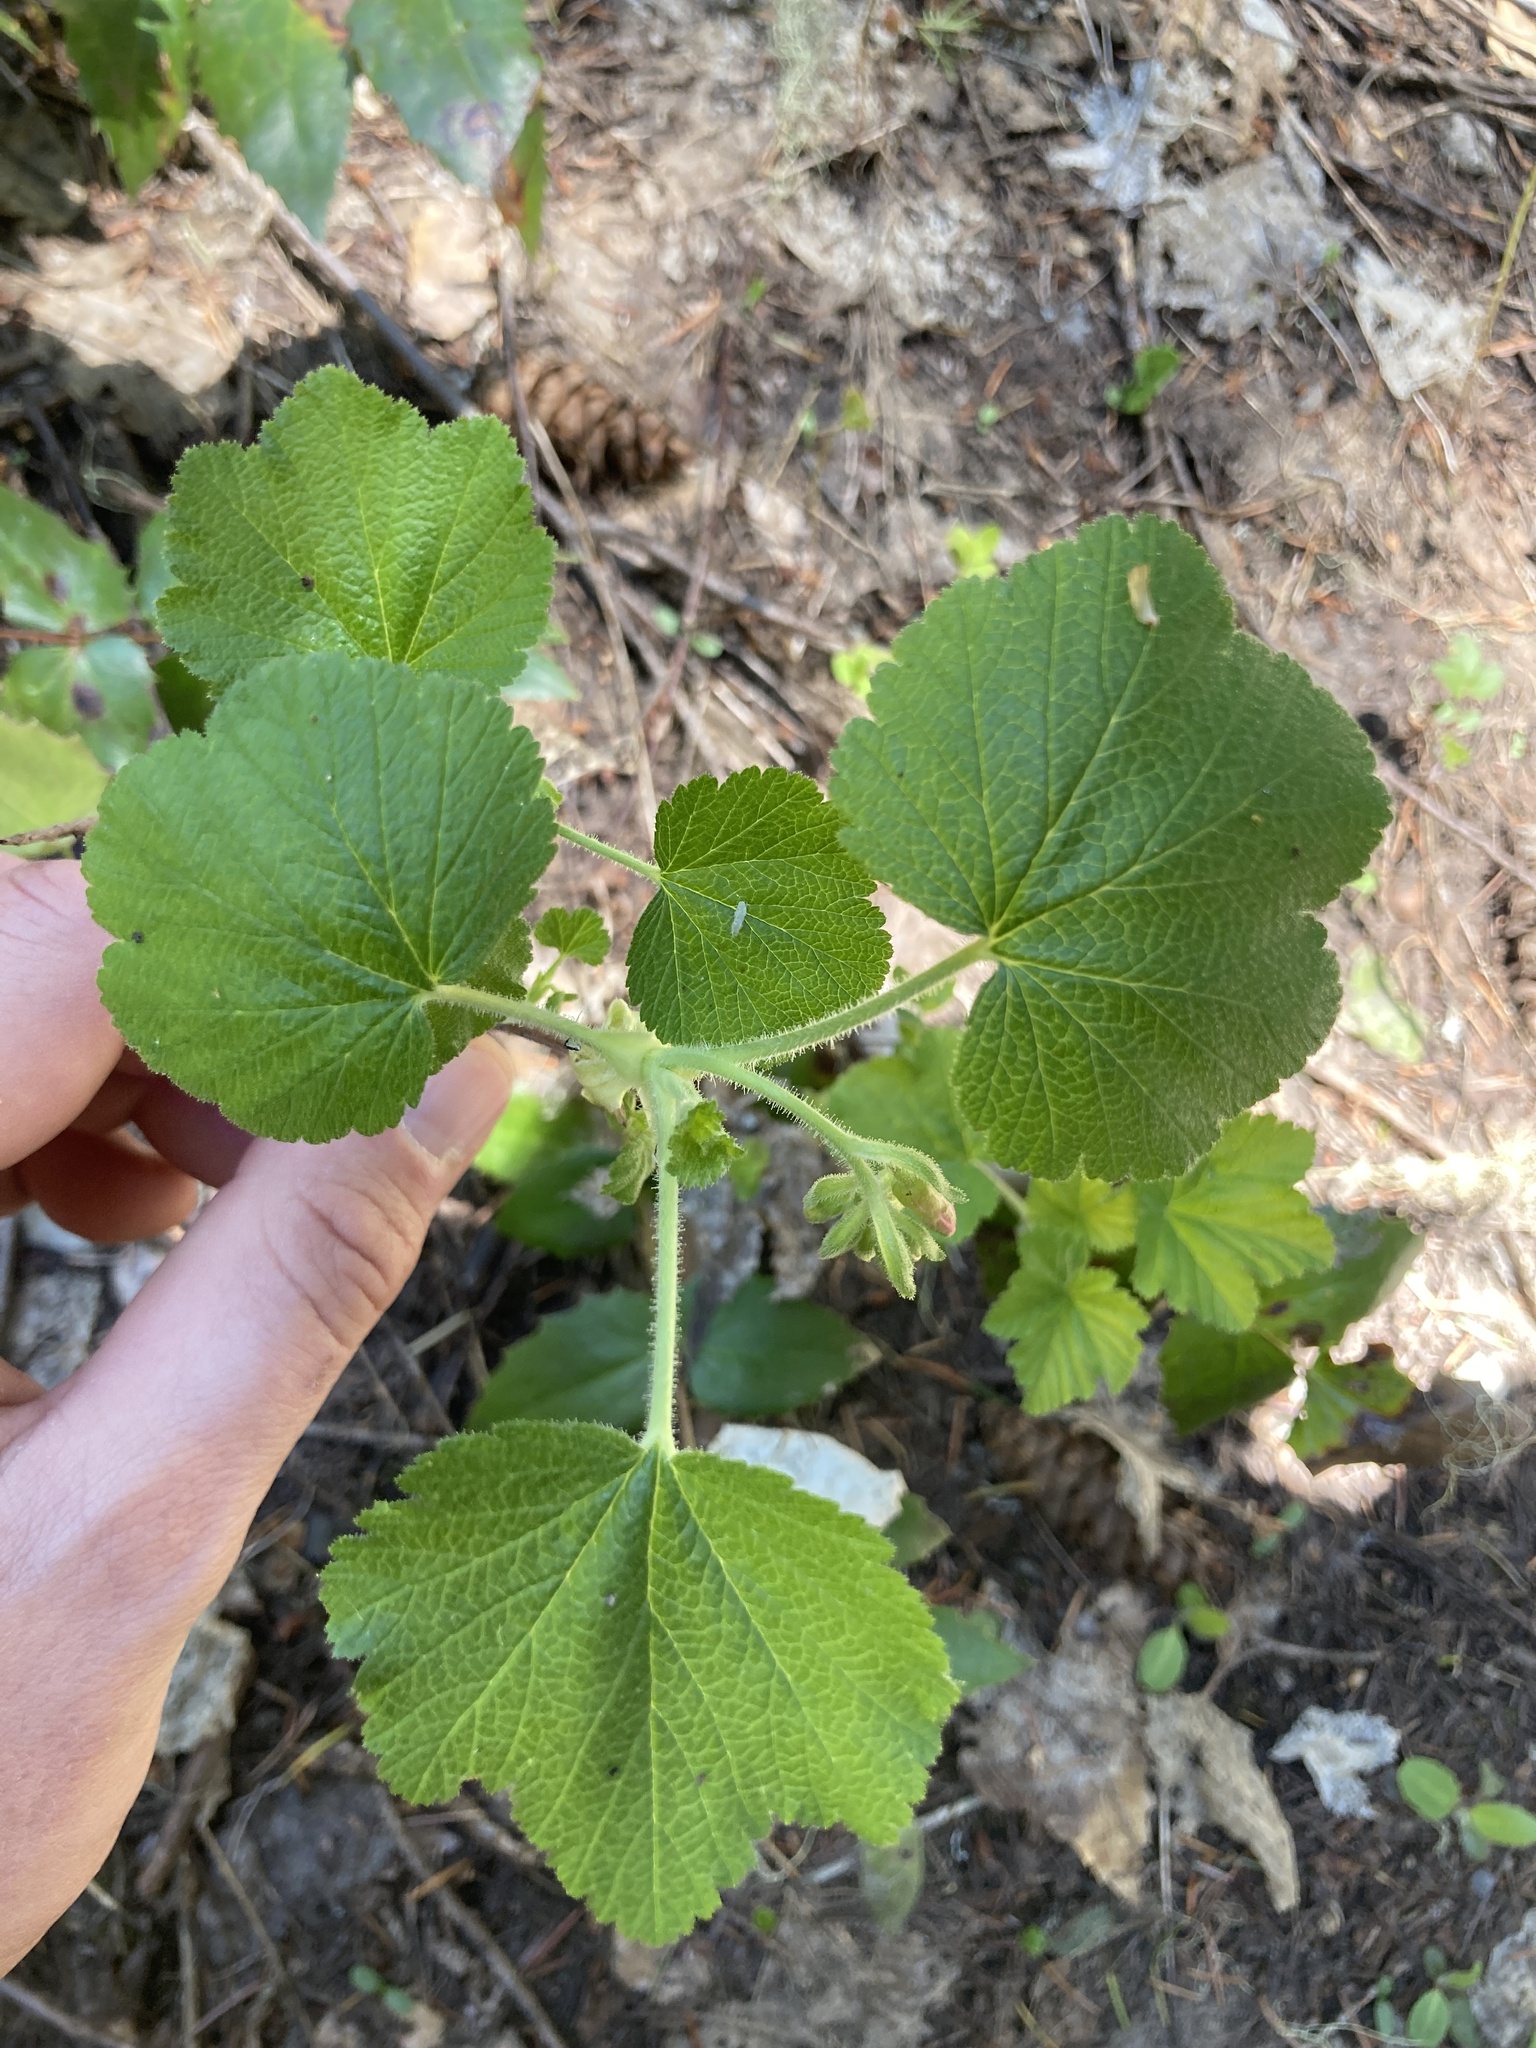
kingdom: Plantae
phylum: Tracheophyta
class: Magnoliopsida
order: Saxifragales
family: Grossulariaceae
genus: Ribes
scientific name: Ribes viscosissimum
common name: Sticky currant
